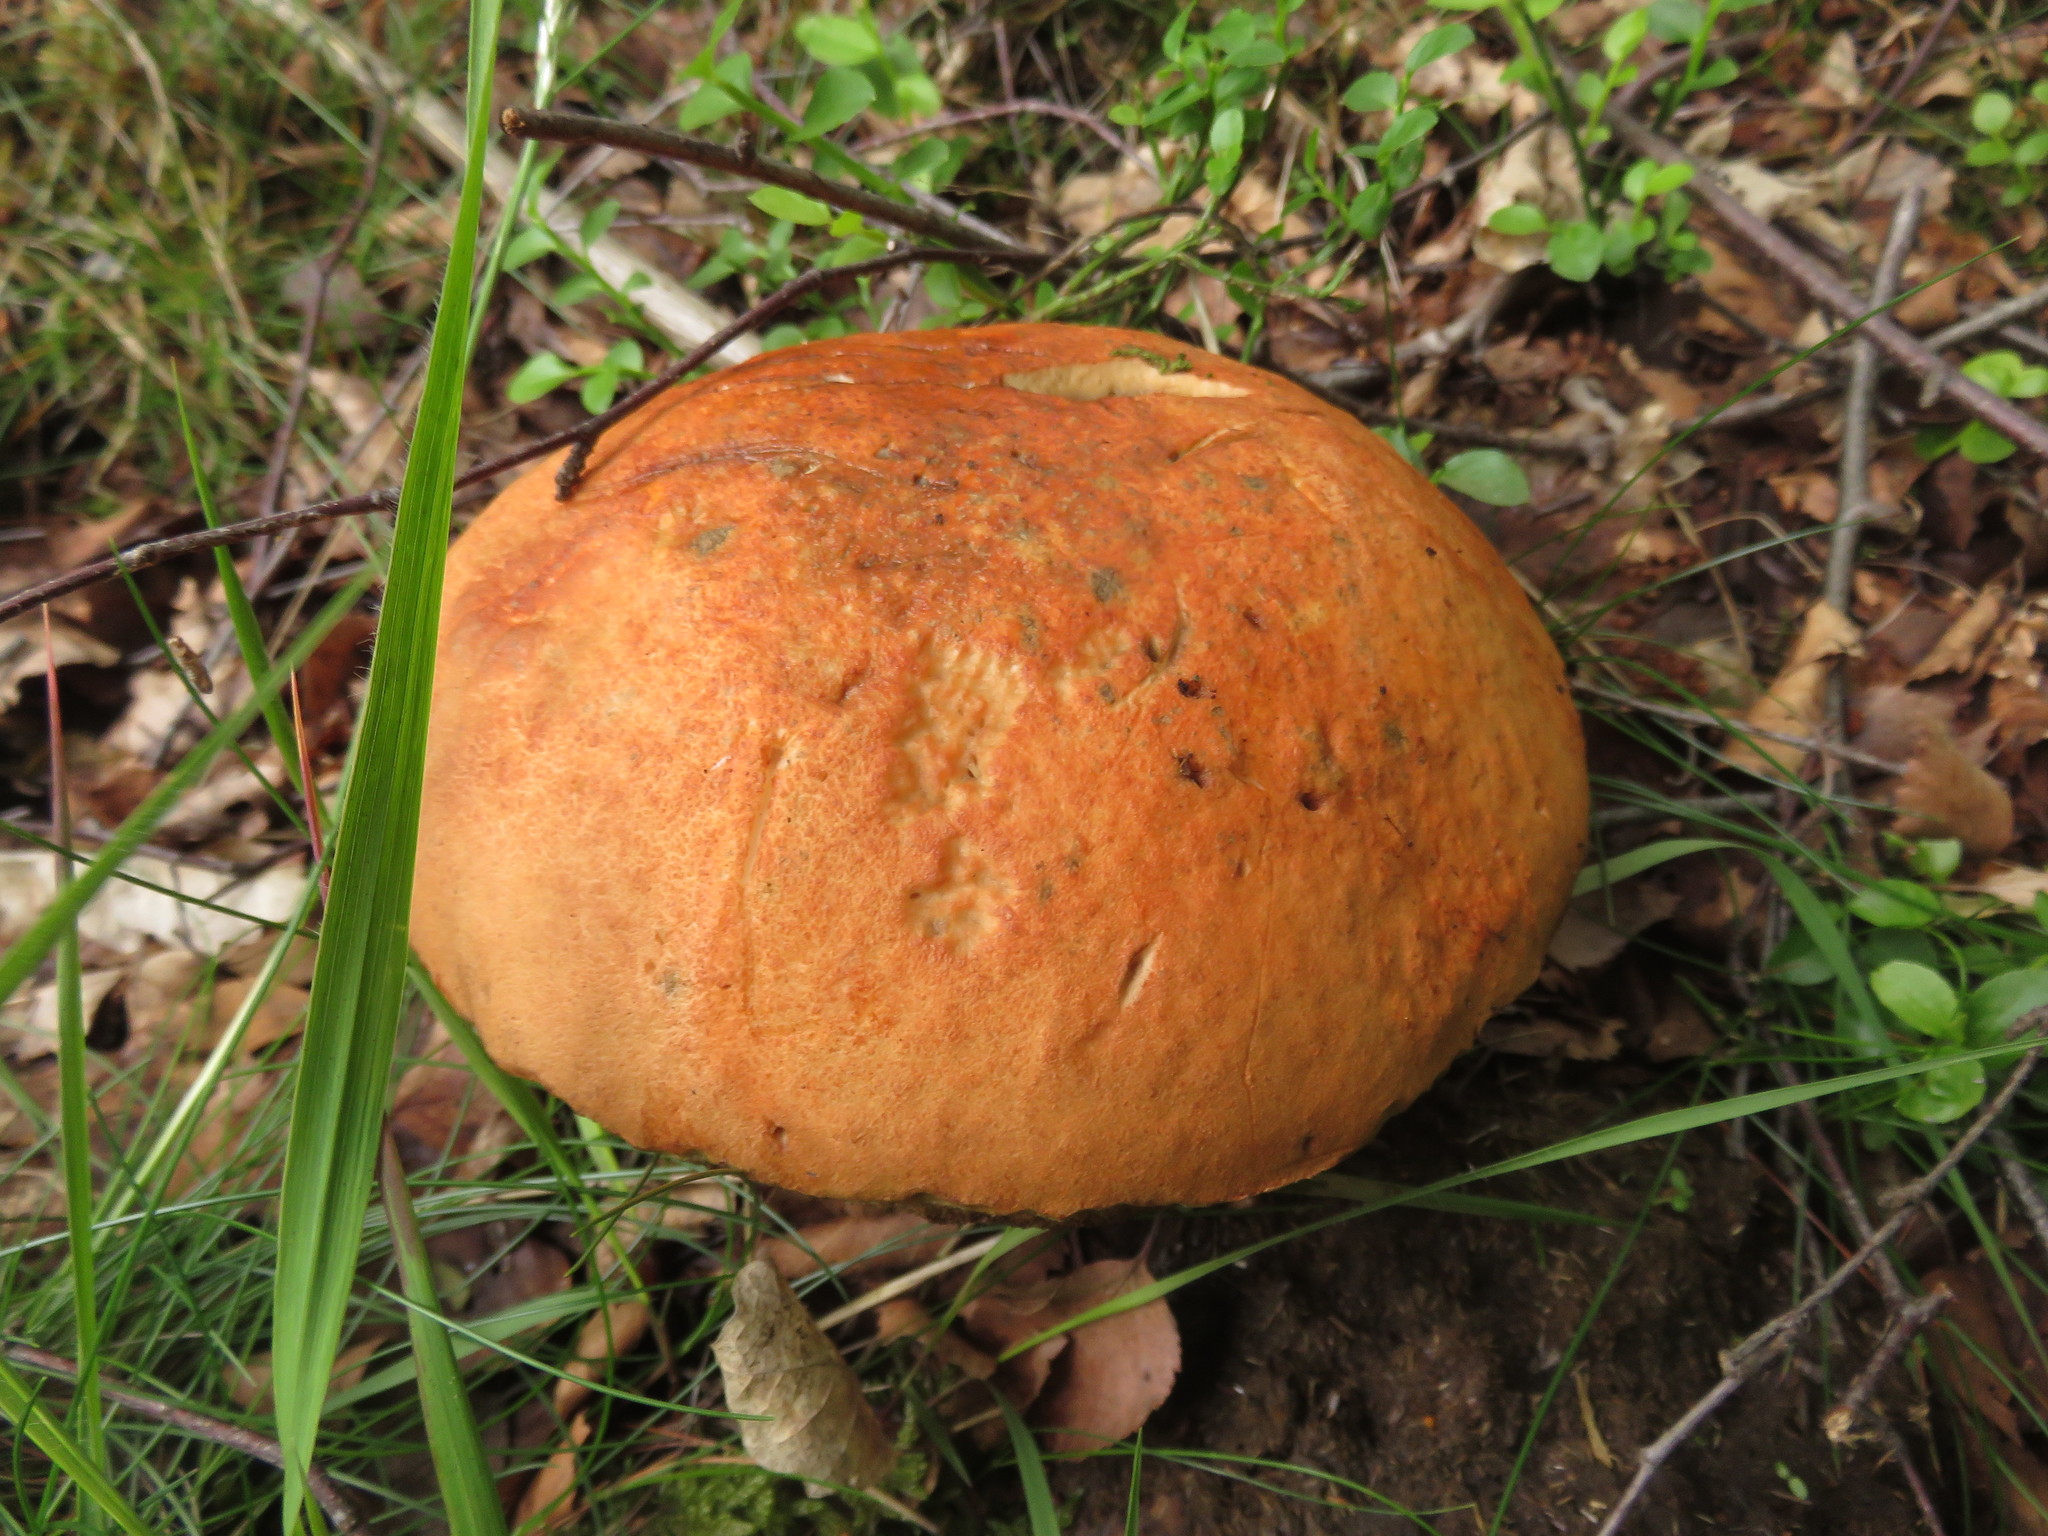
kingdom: Fungi
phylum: Basidiomycota
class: Agaricomycetes
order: Boletales
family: Boletaceae
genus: Leccinum
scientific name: Leccinum versipelle
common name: Orange birch bolete
